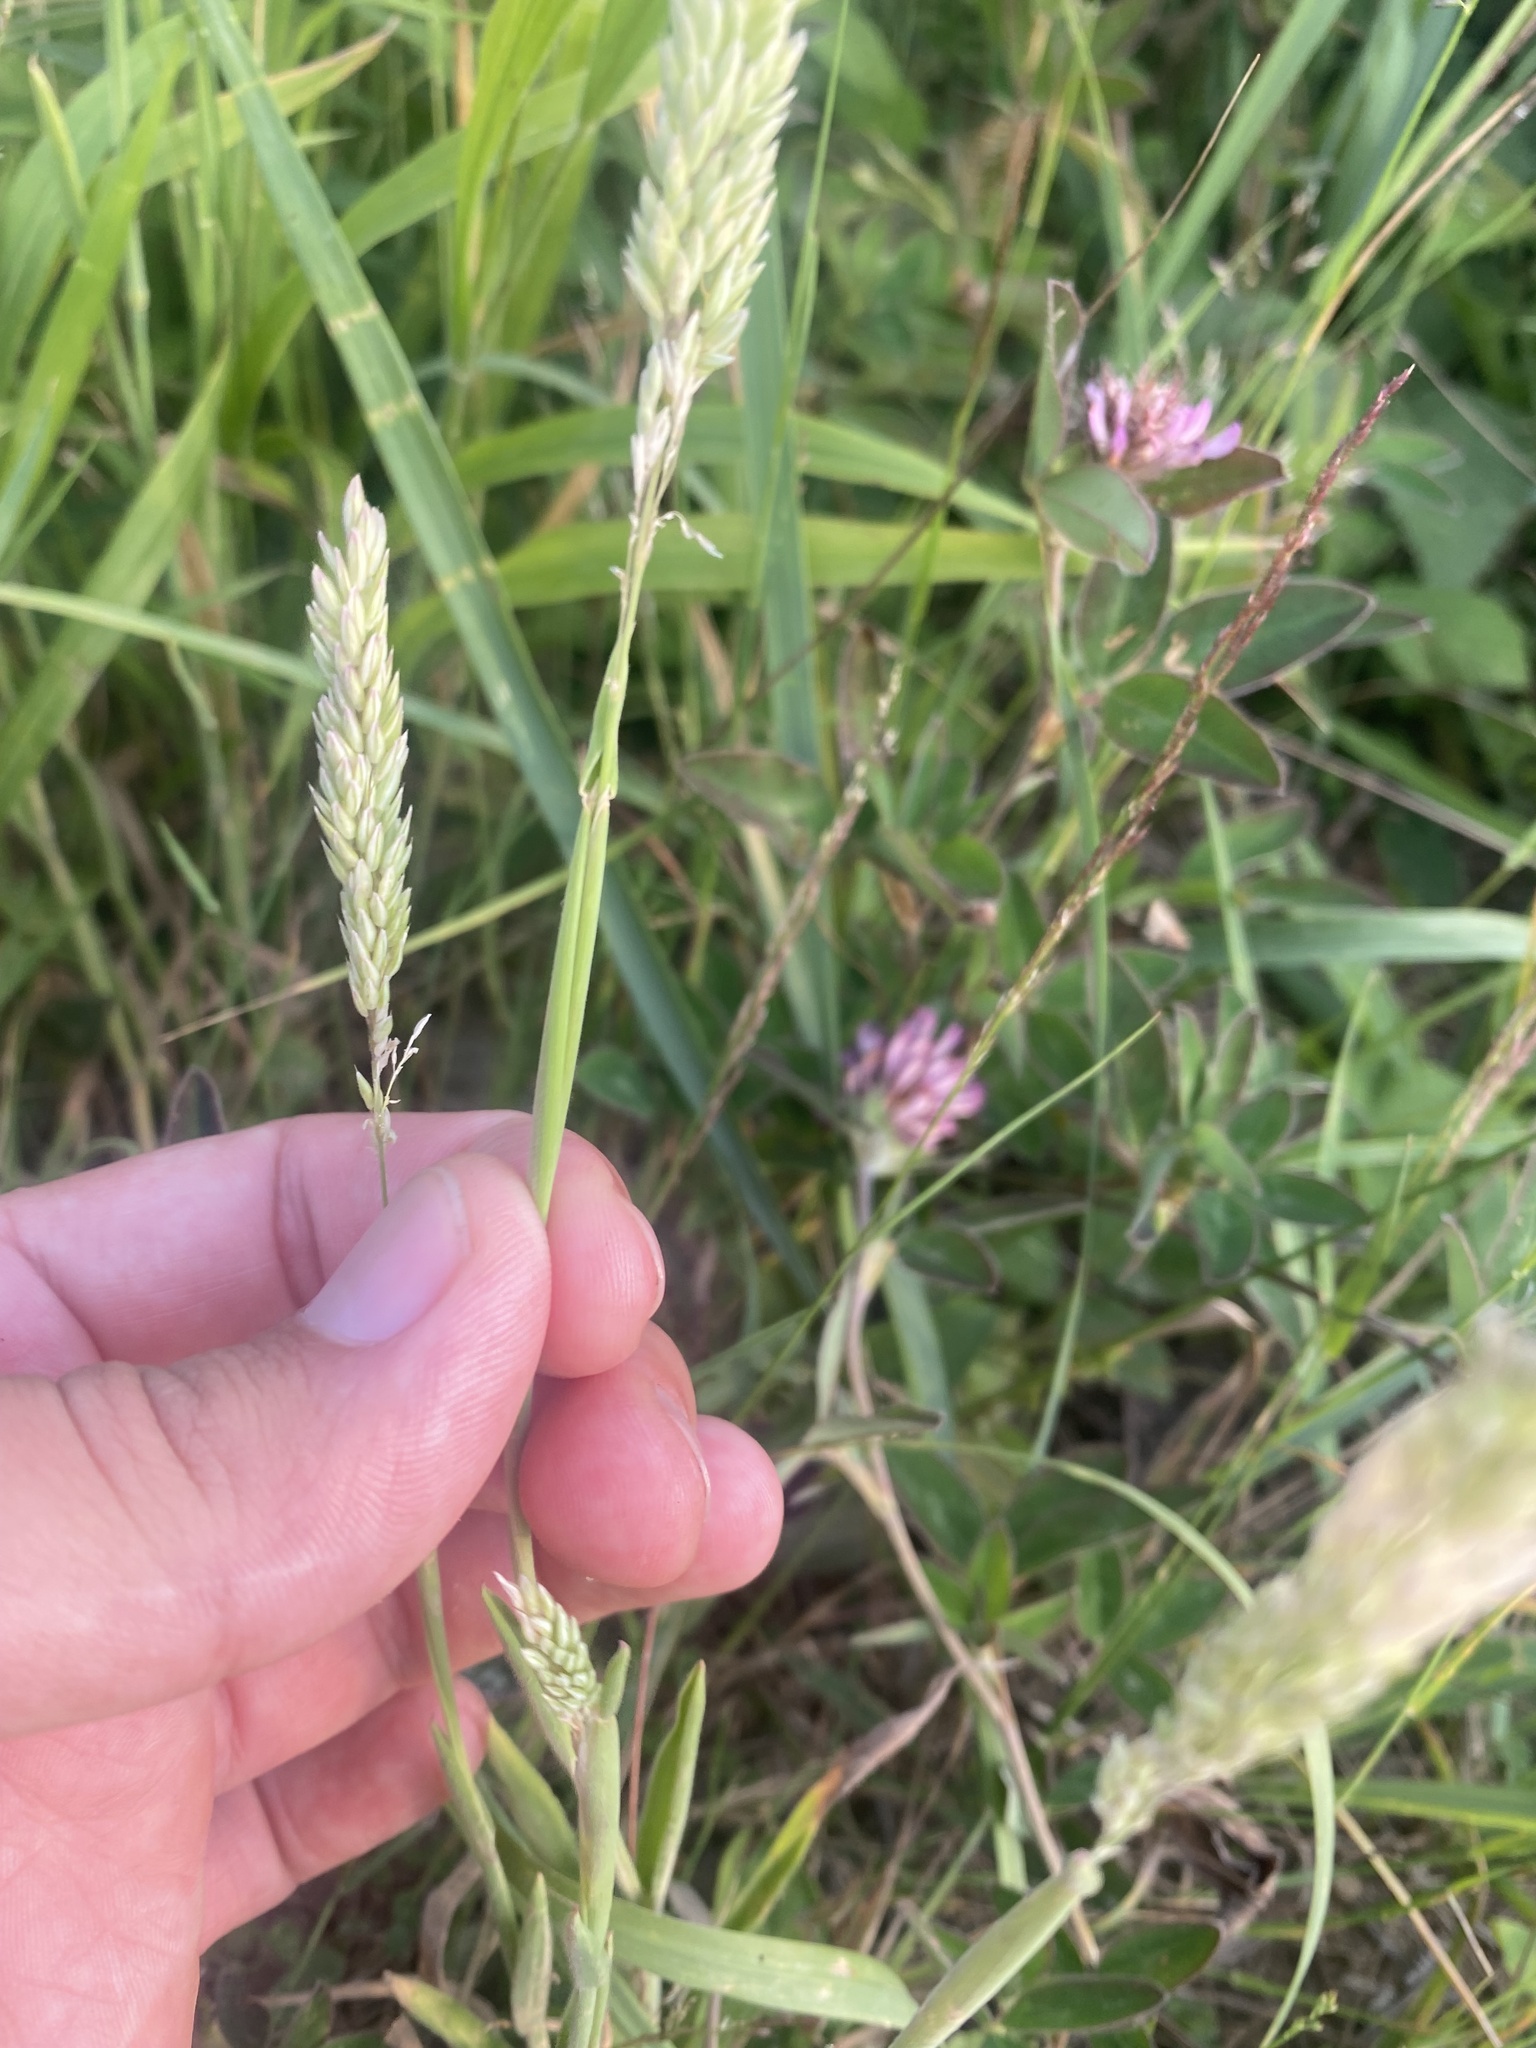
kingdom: Plantae
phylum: Tracheophyta
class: Liliopsida
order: Poales
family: Poaceae
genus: Holcus
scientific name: Holcus lanatus
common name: Yorkshire-fog
